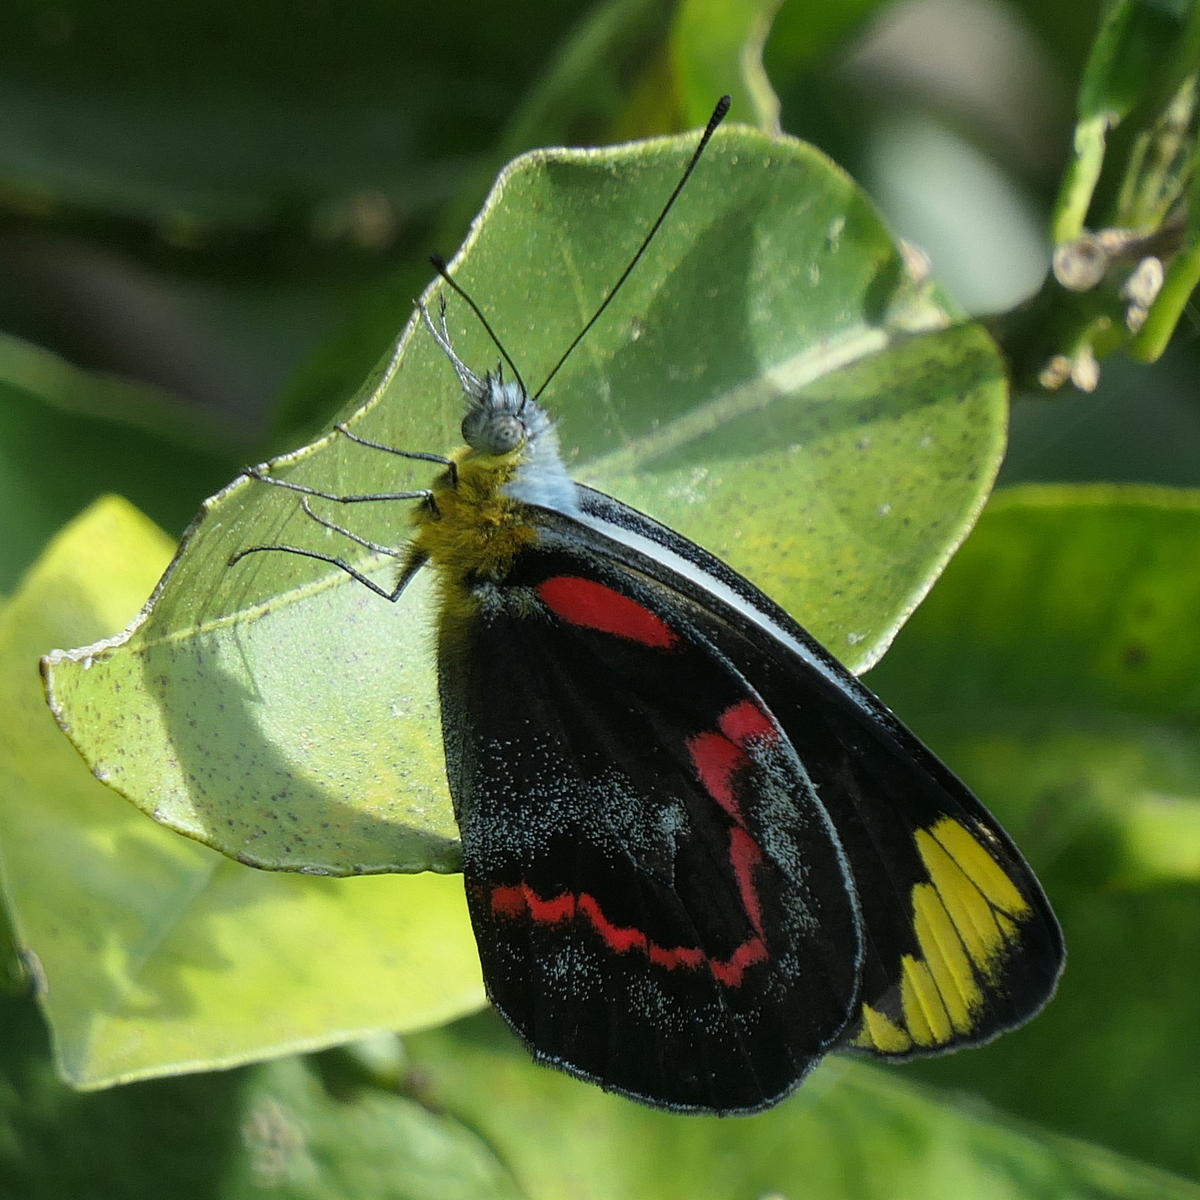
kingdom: Animalia
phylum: Arthropoda
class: Insecta
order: Lepidoptera
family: Pieridae
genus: Delias
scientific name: Delias nigrina
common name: Black jezebel
